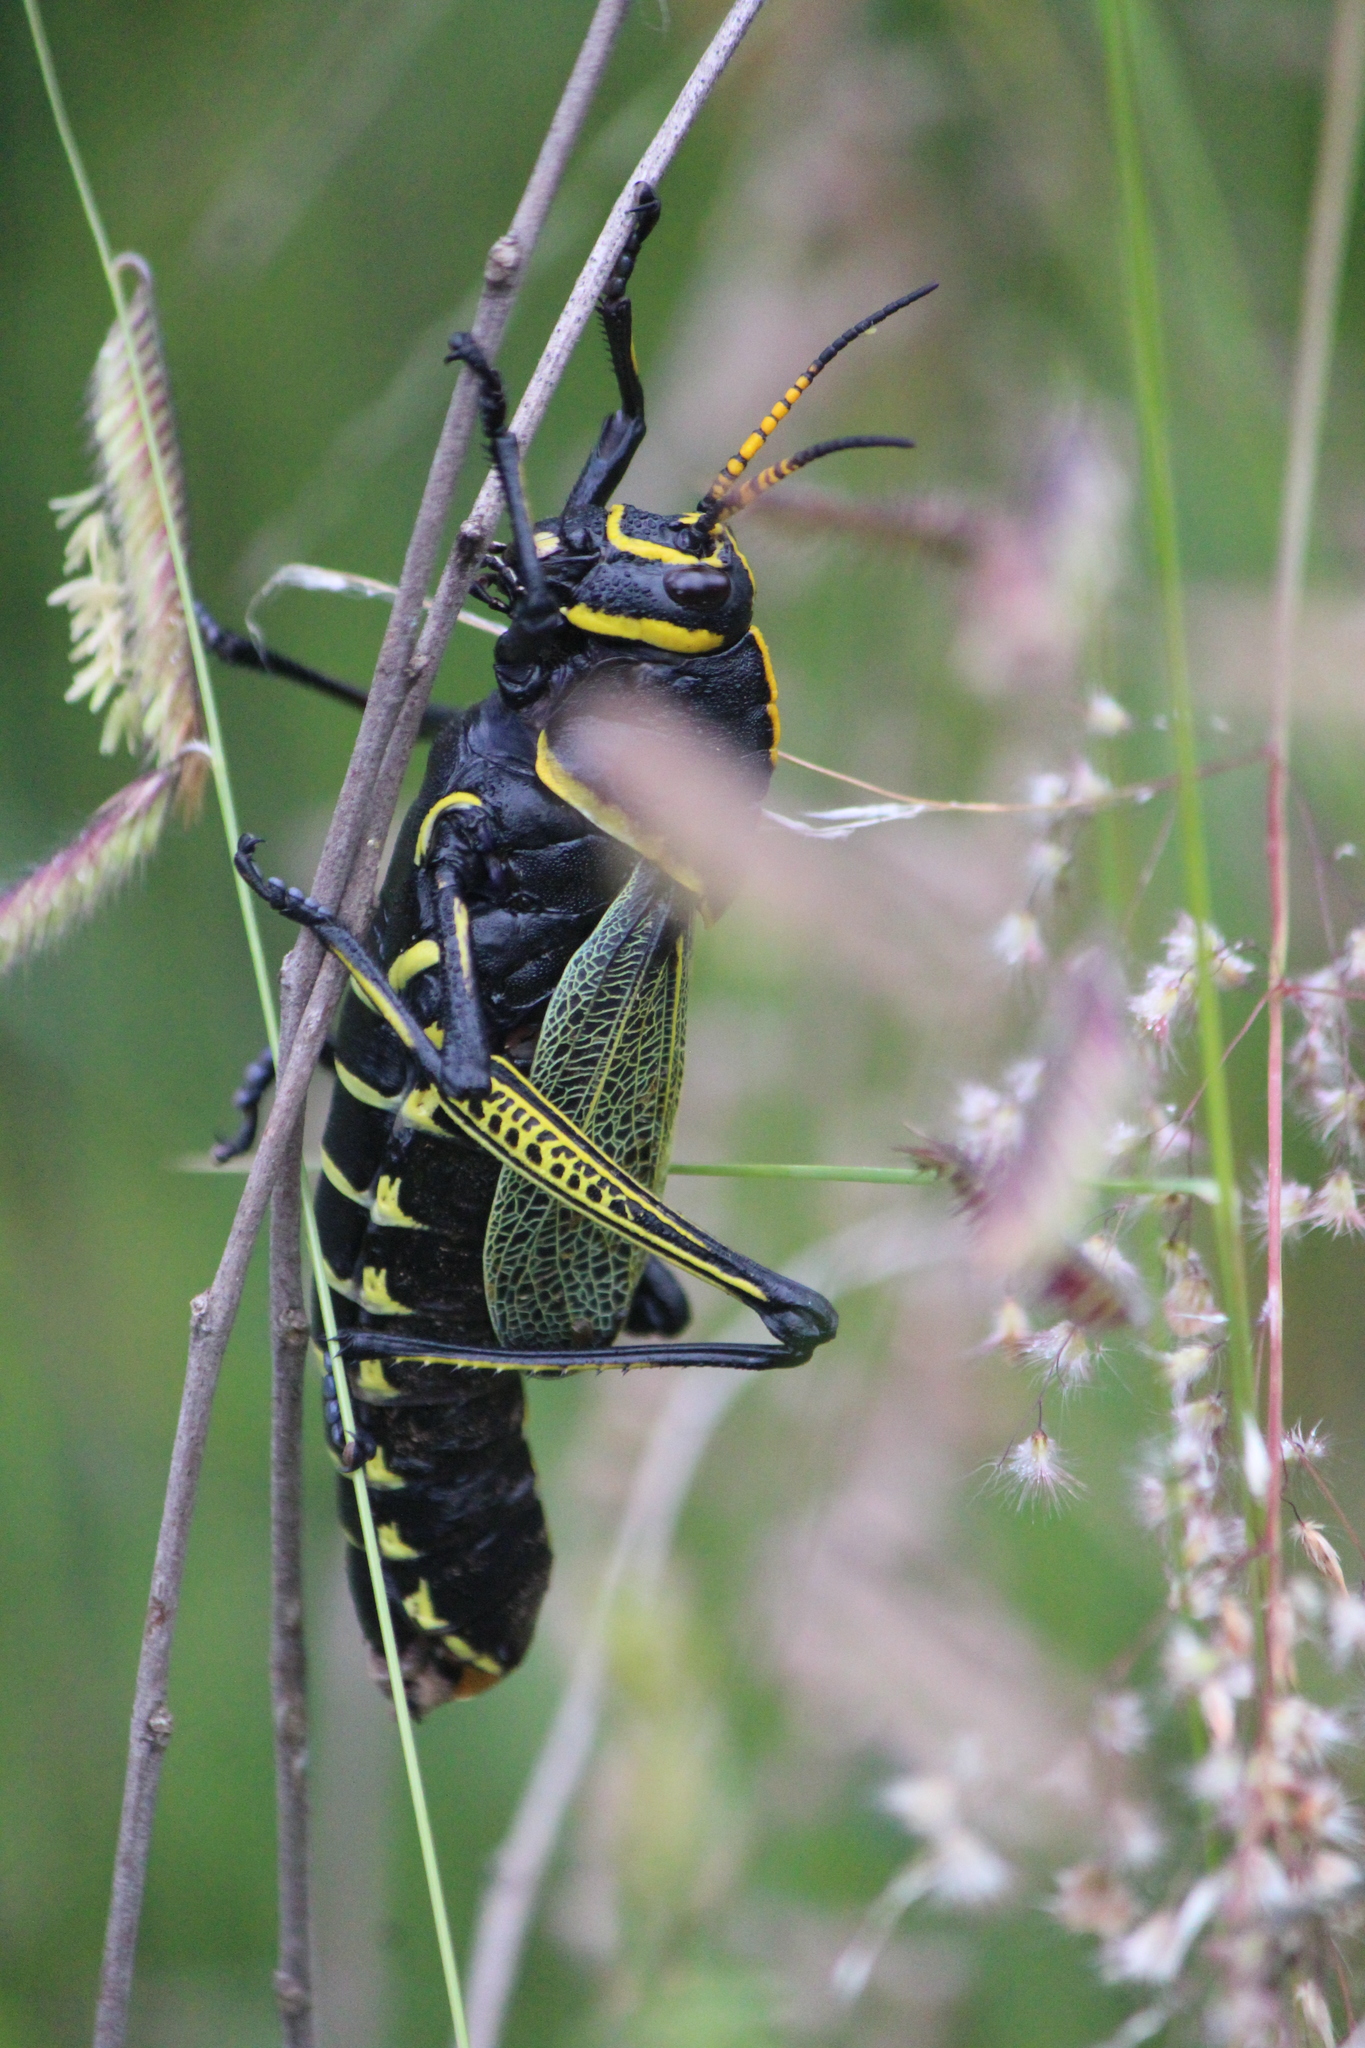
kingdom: Animalia
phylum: Arthropoda
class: Insecta
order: Orthoptera
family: Romaleidae
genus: Romalea
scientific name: Romalea
